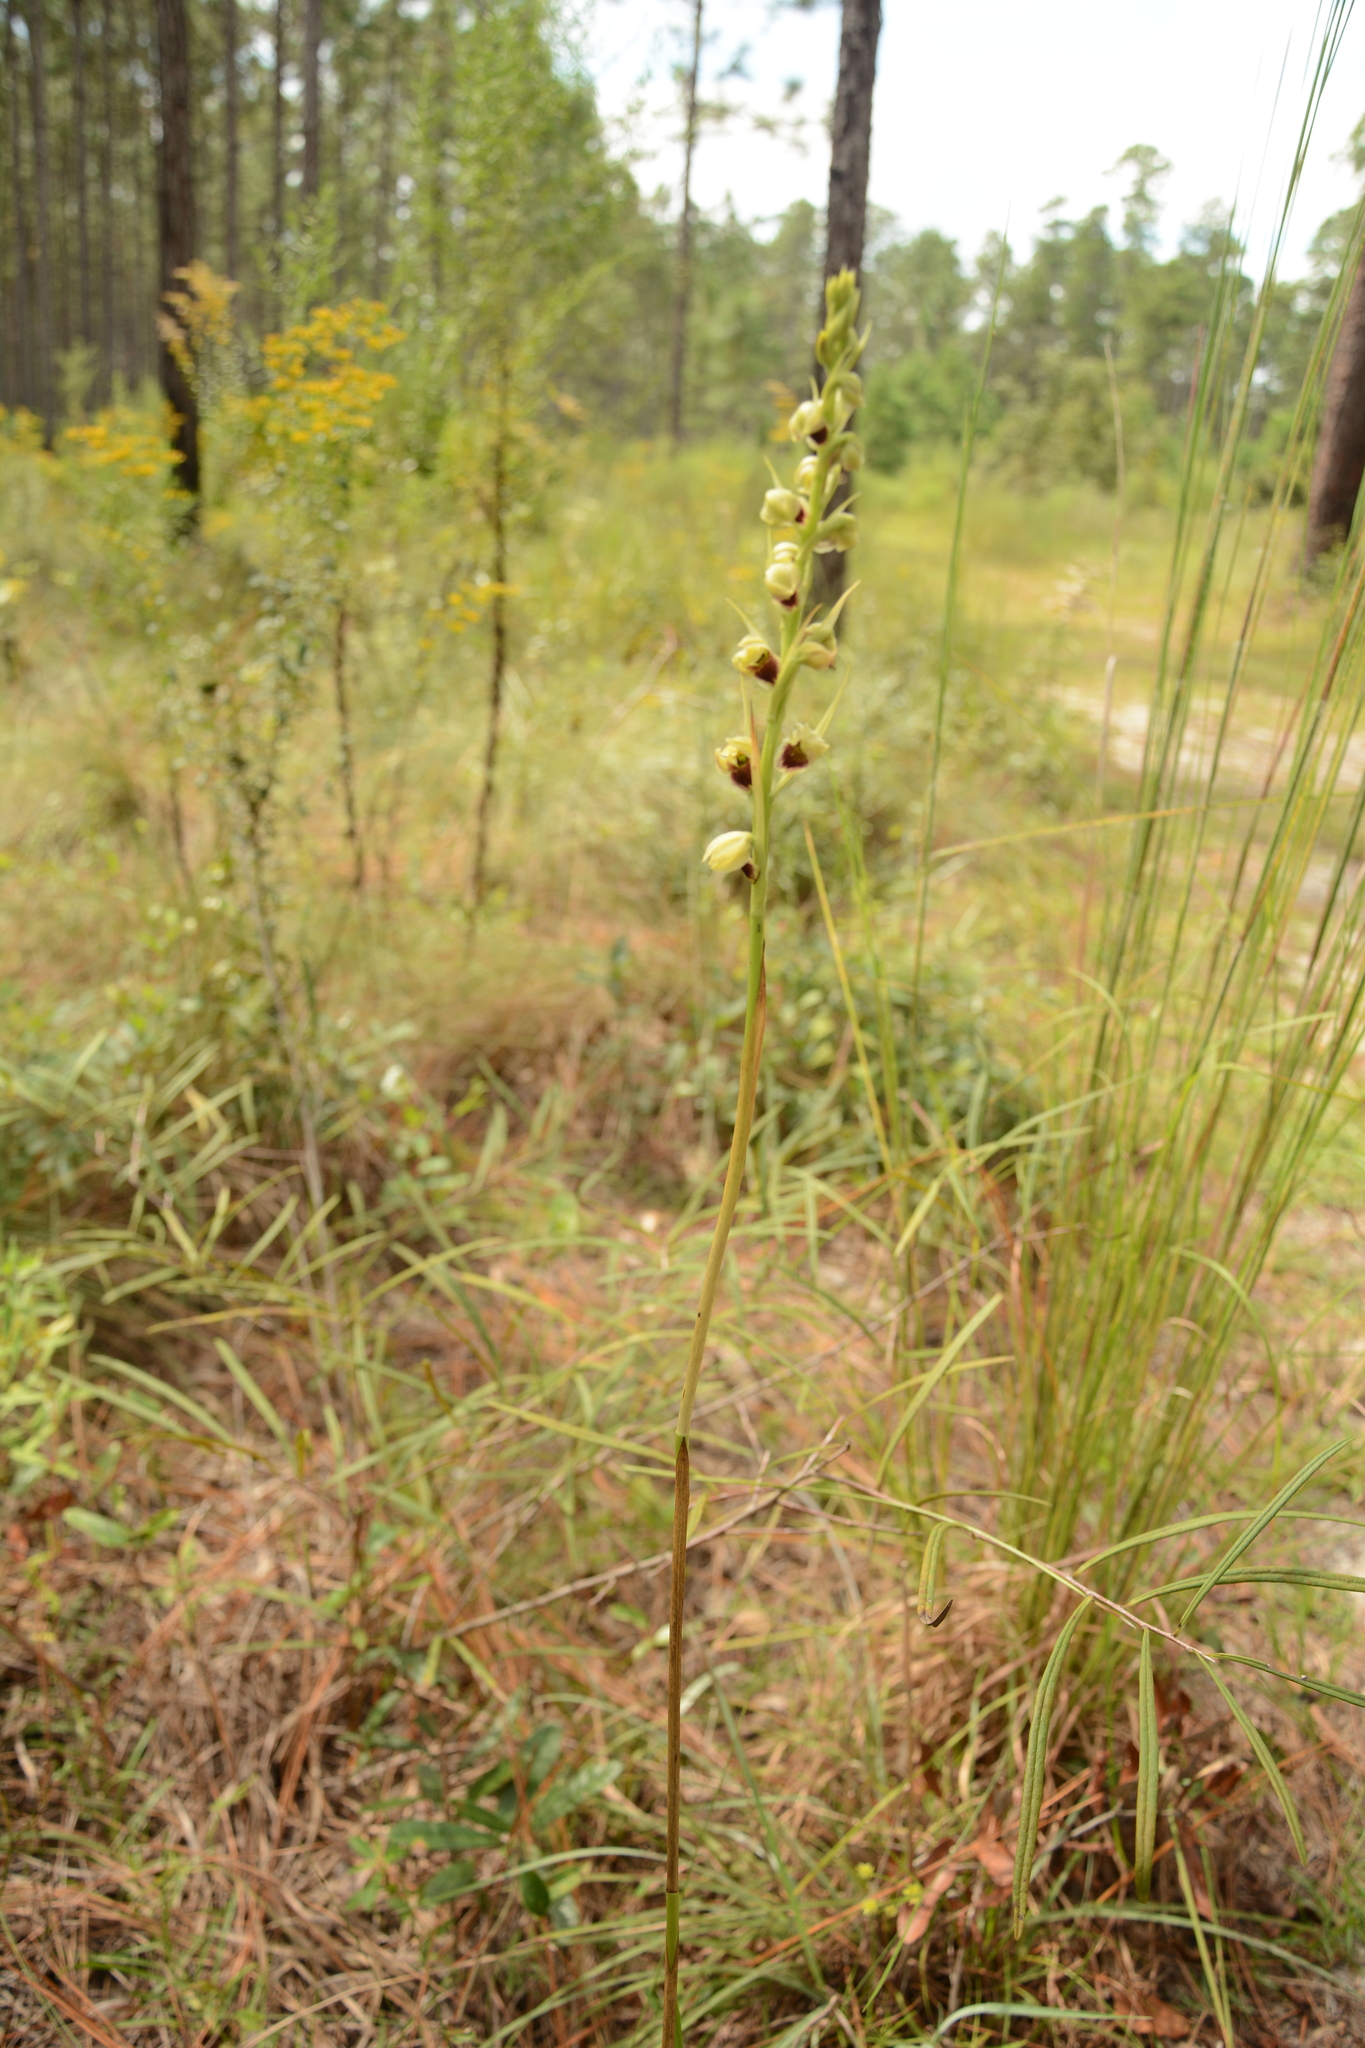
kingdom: Plantae
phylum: Tracheophyta
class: Liliopsida
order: Asparagales
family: Orchidaceae
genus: Eulophia
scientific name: Eulophia ecristata
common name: Giant orchid
